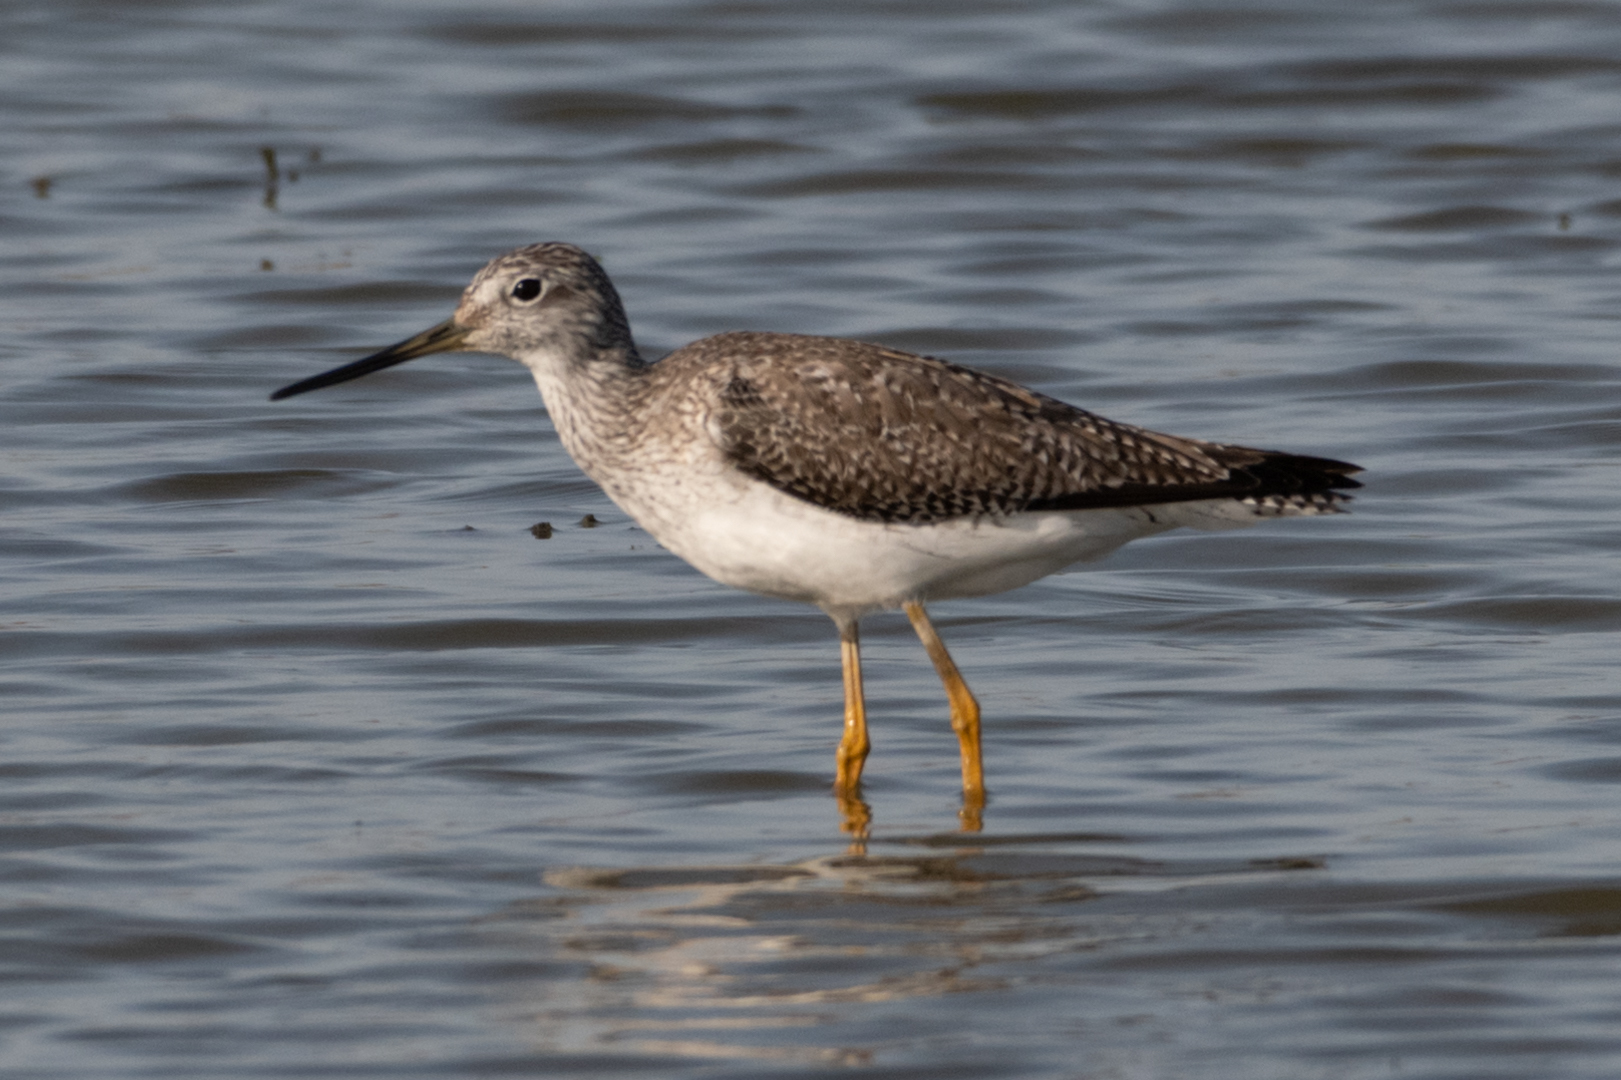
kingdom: Animalia
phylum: Chordata
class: Aves
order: Charadriiformes
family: Scolopacidae
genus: Tringa
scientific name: Tringa melanoleuca
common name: Greater yellowlegs
